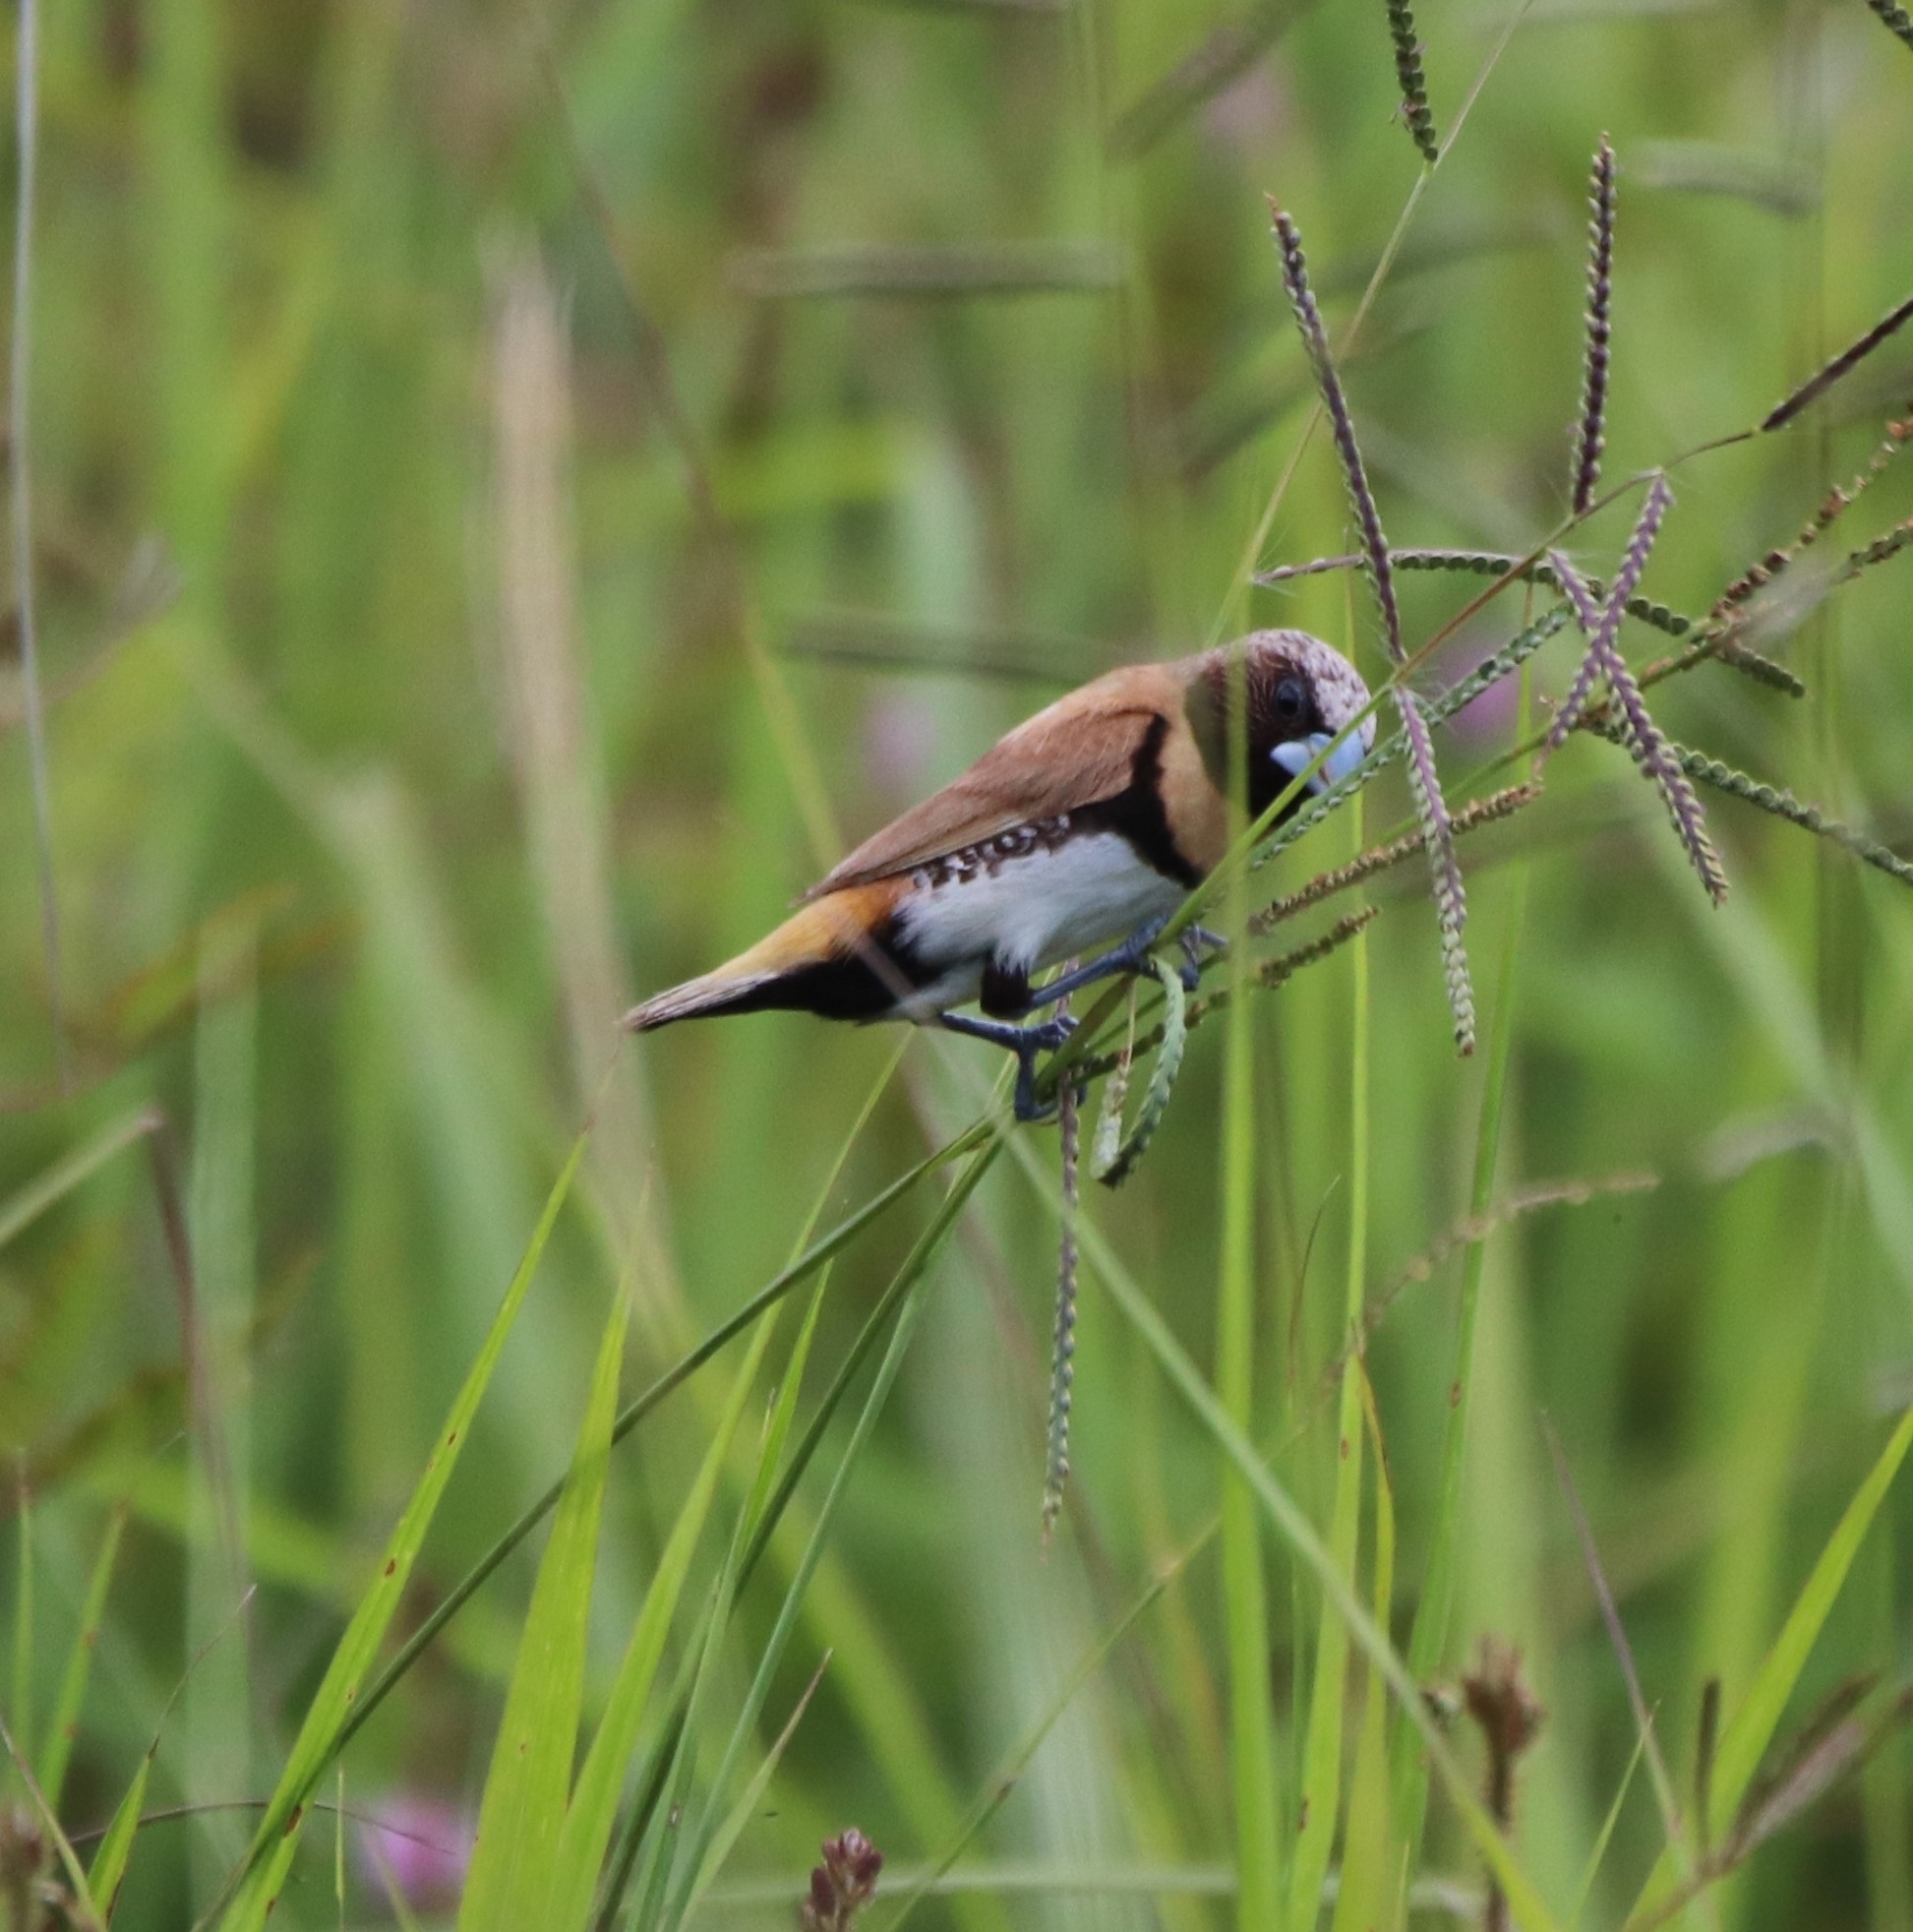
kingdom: Animalia
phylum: Chordata
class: Aves
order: Passeriformes
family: Estrildidae
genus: Lonchura
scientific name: Lonchura castaneothorax
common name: Chestnut-breasted mannikin
